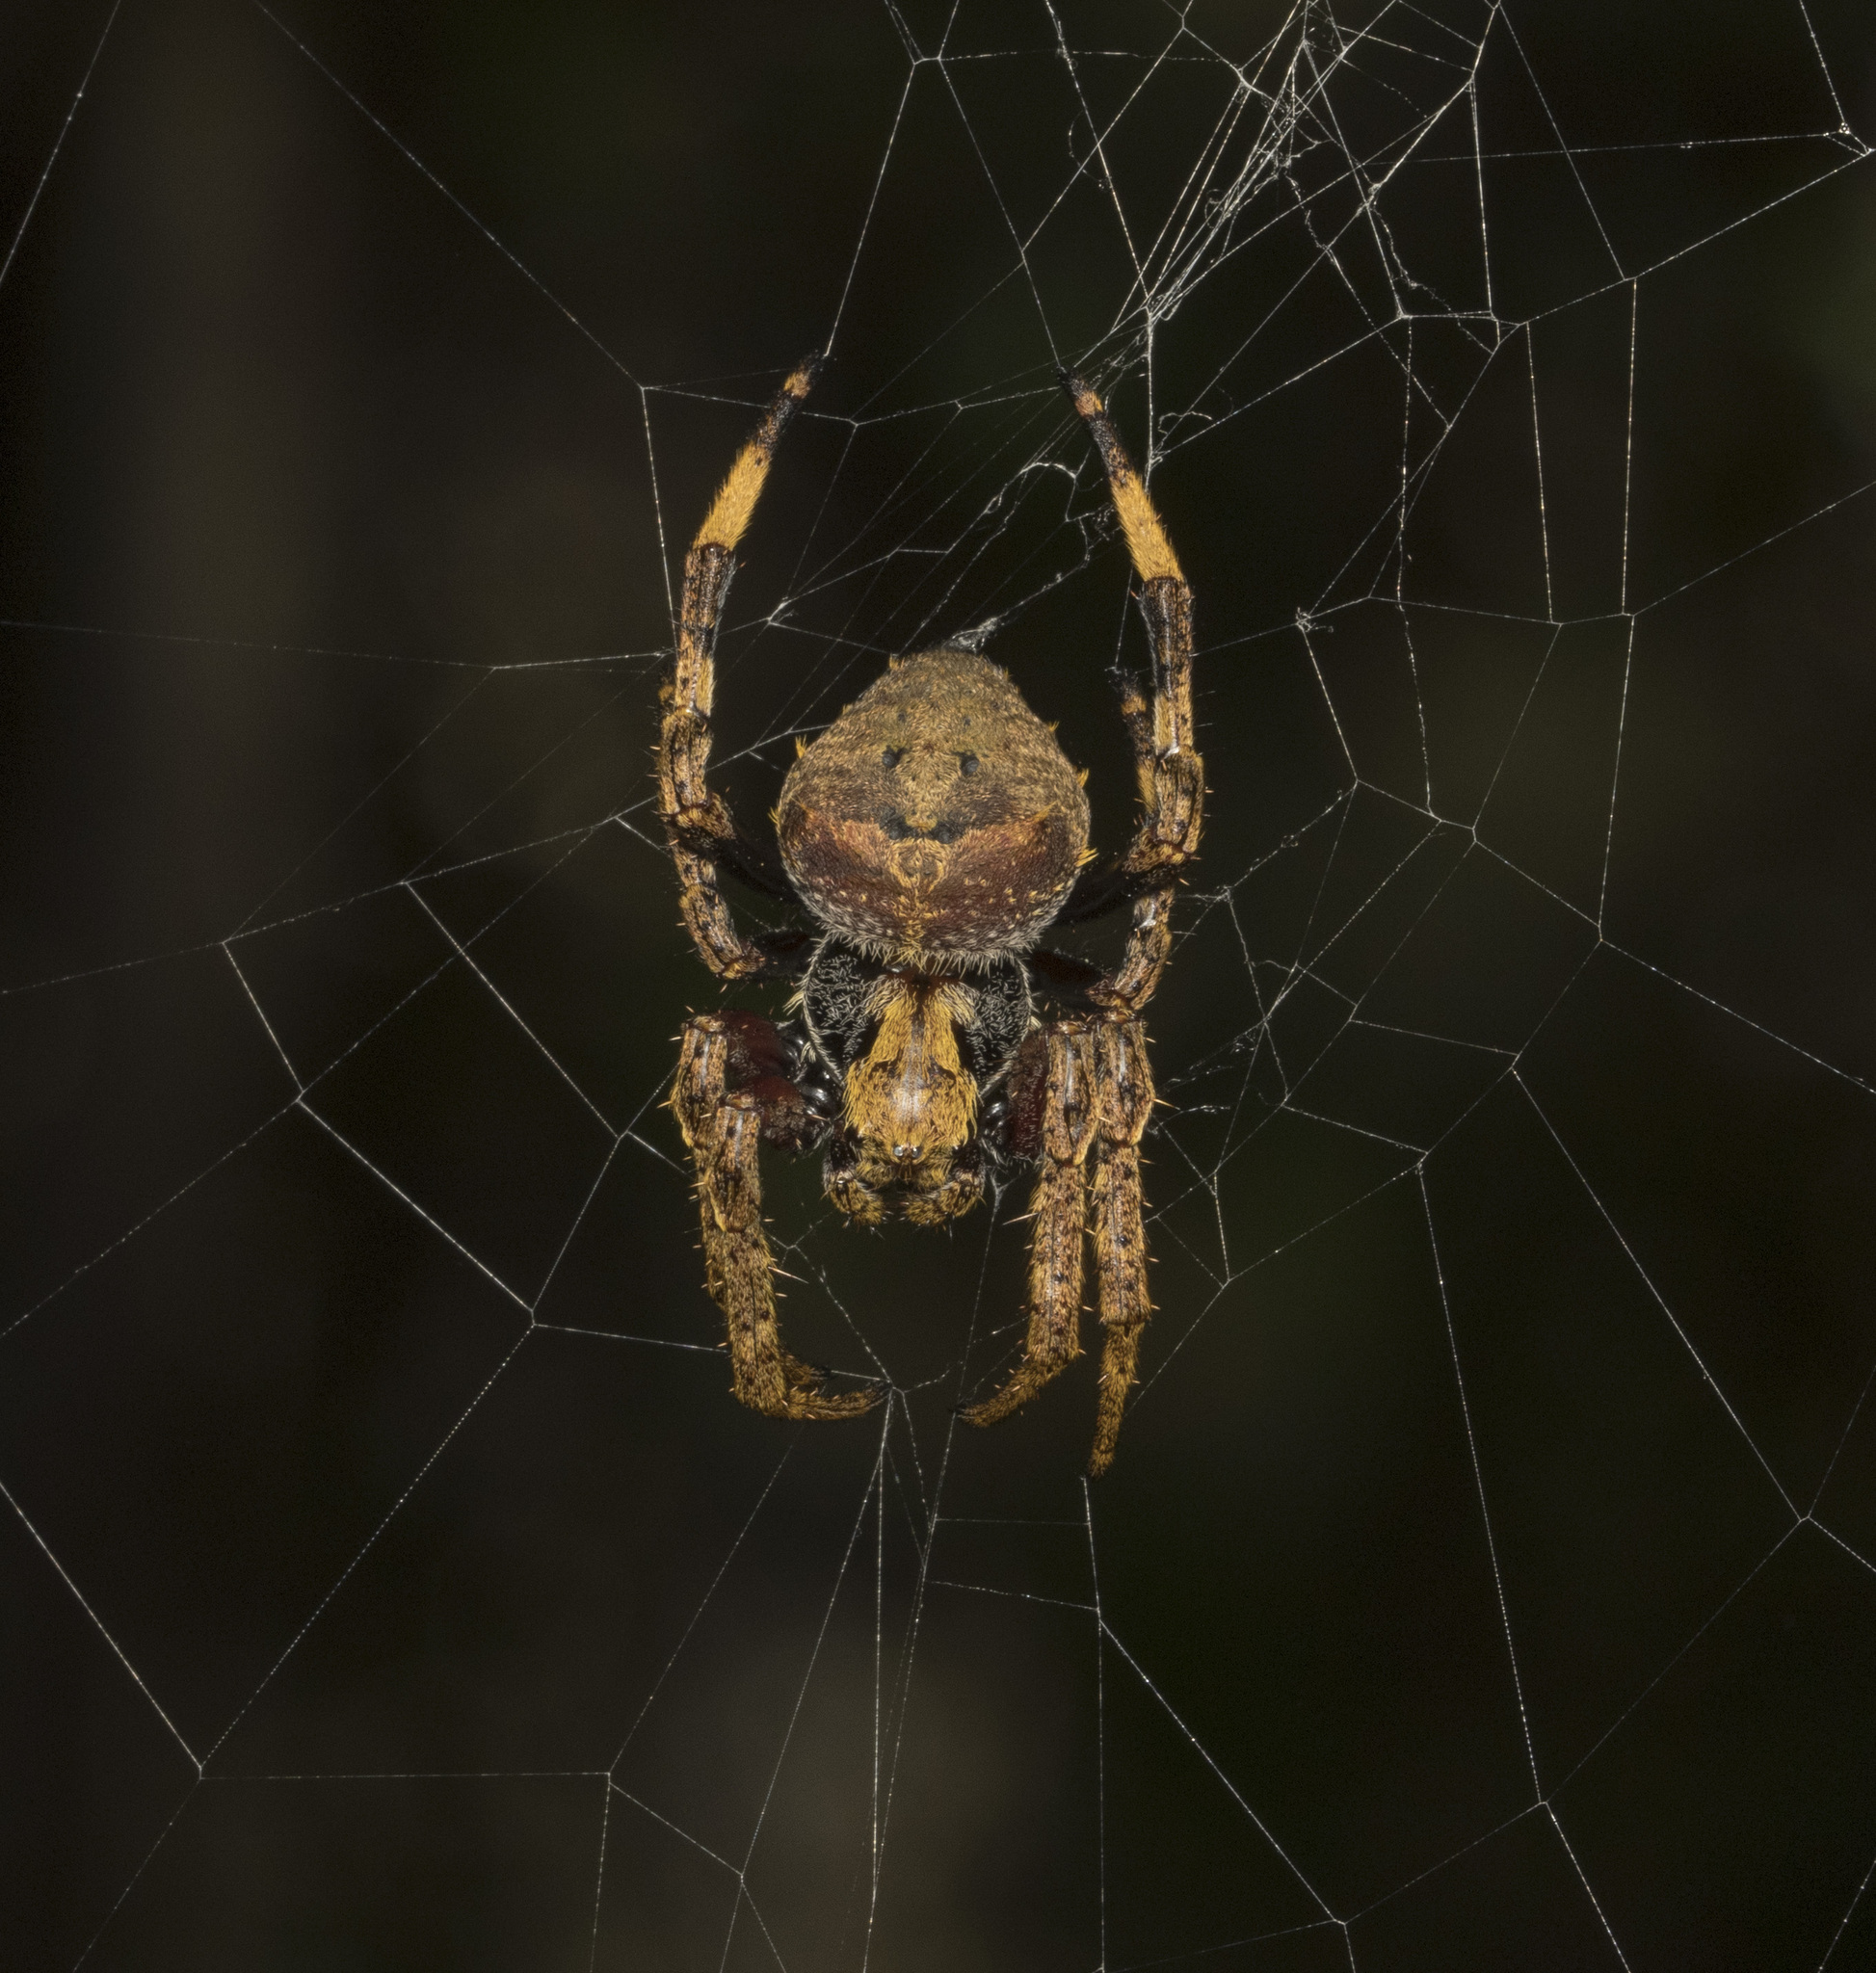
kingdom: Animalia
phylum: Arthropoda
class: Arachnida
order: Araneae
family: Araneidae
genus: Molinaranea
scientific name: Molinaranea clymene
